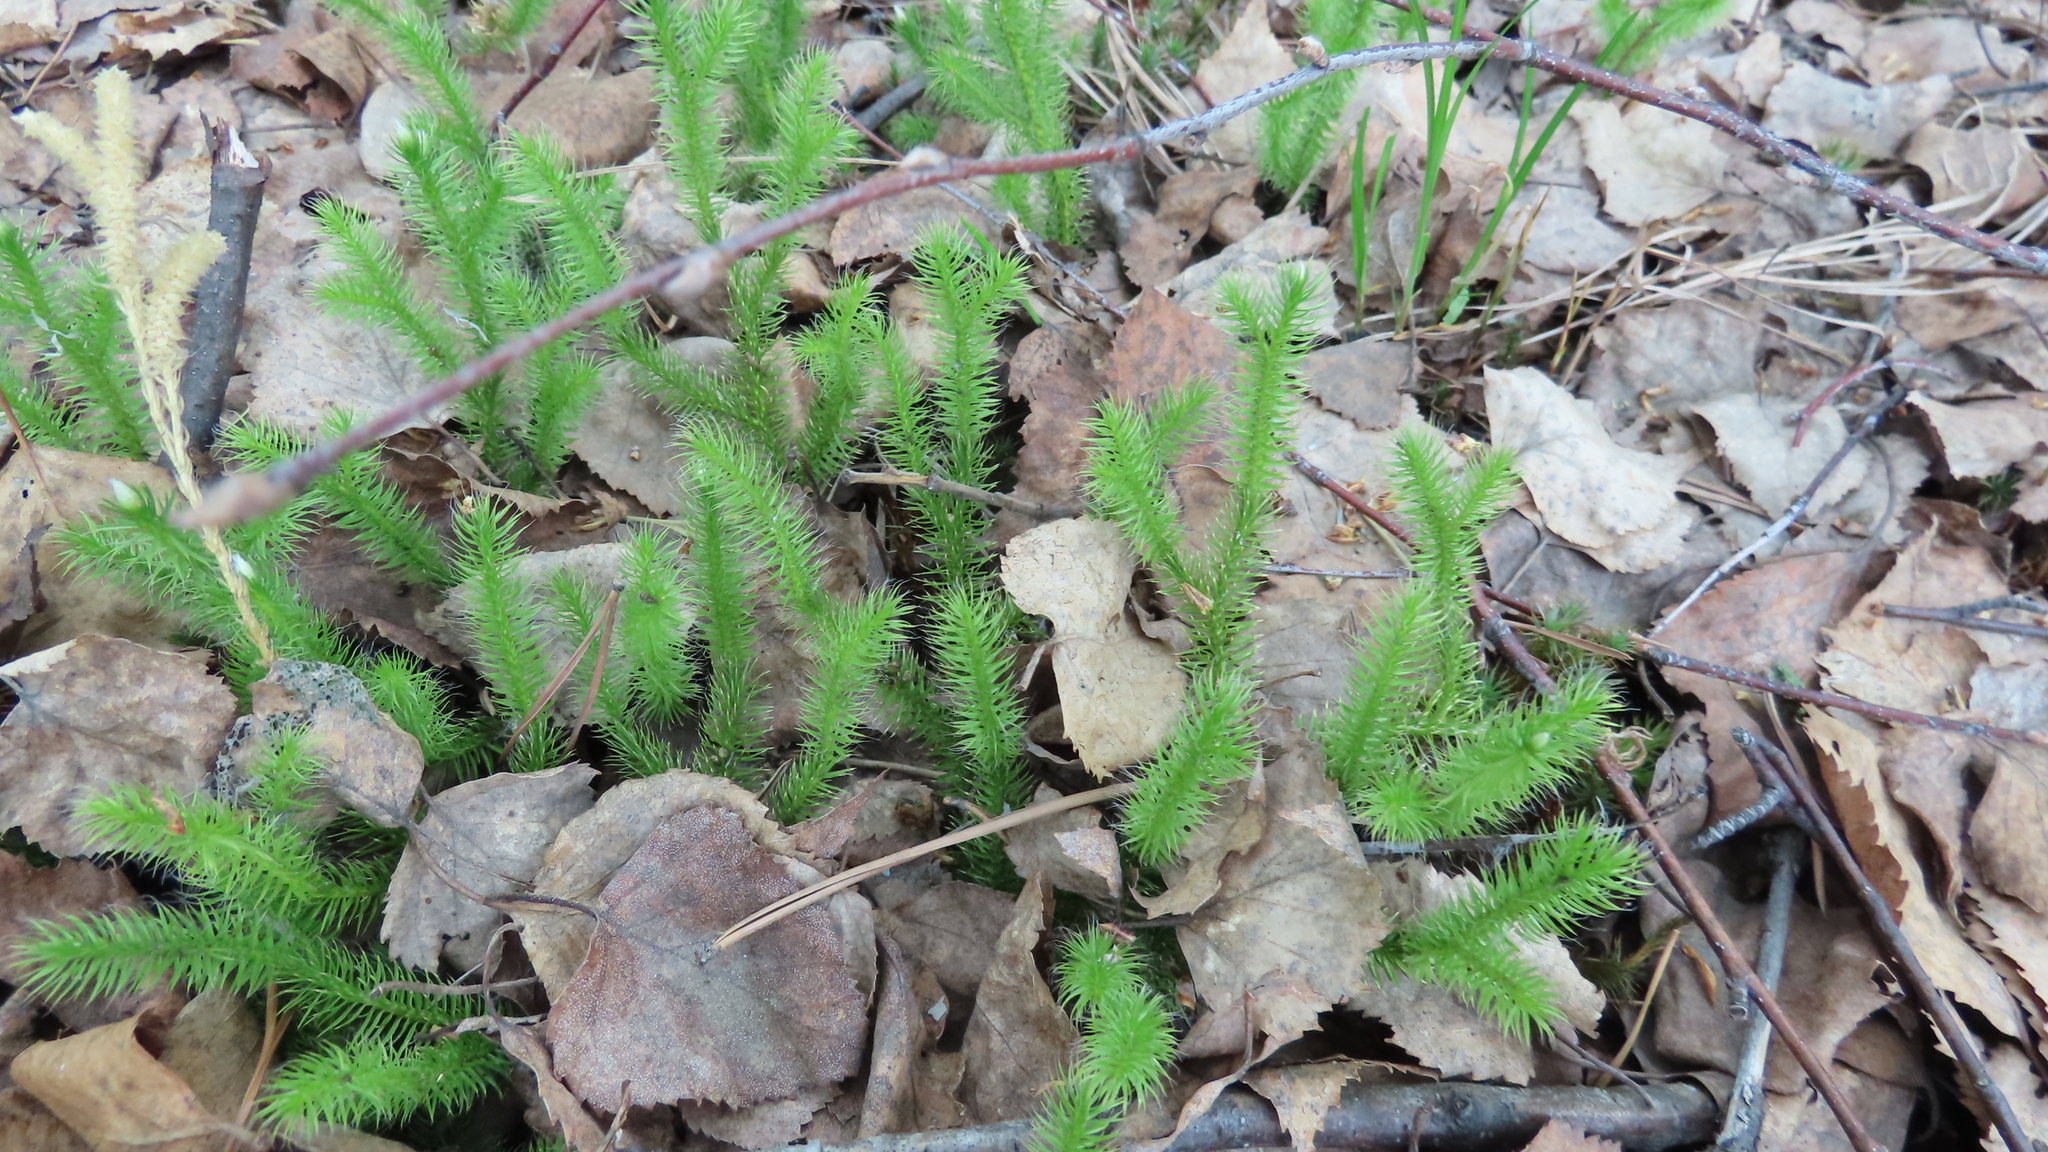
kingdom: Plantae
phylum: Tracheophyta
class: Lycopodiopsida
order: Lycopodiales
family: Lycopodiaceae
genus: Lycopodium
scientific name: Lycopodium clavatum
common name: Stag's-horn clubmoss
